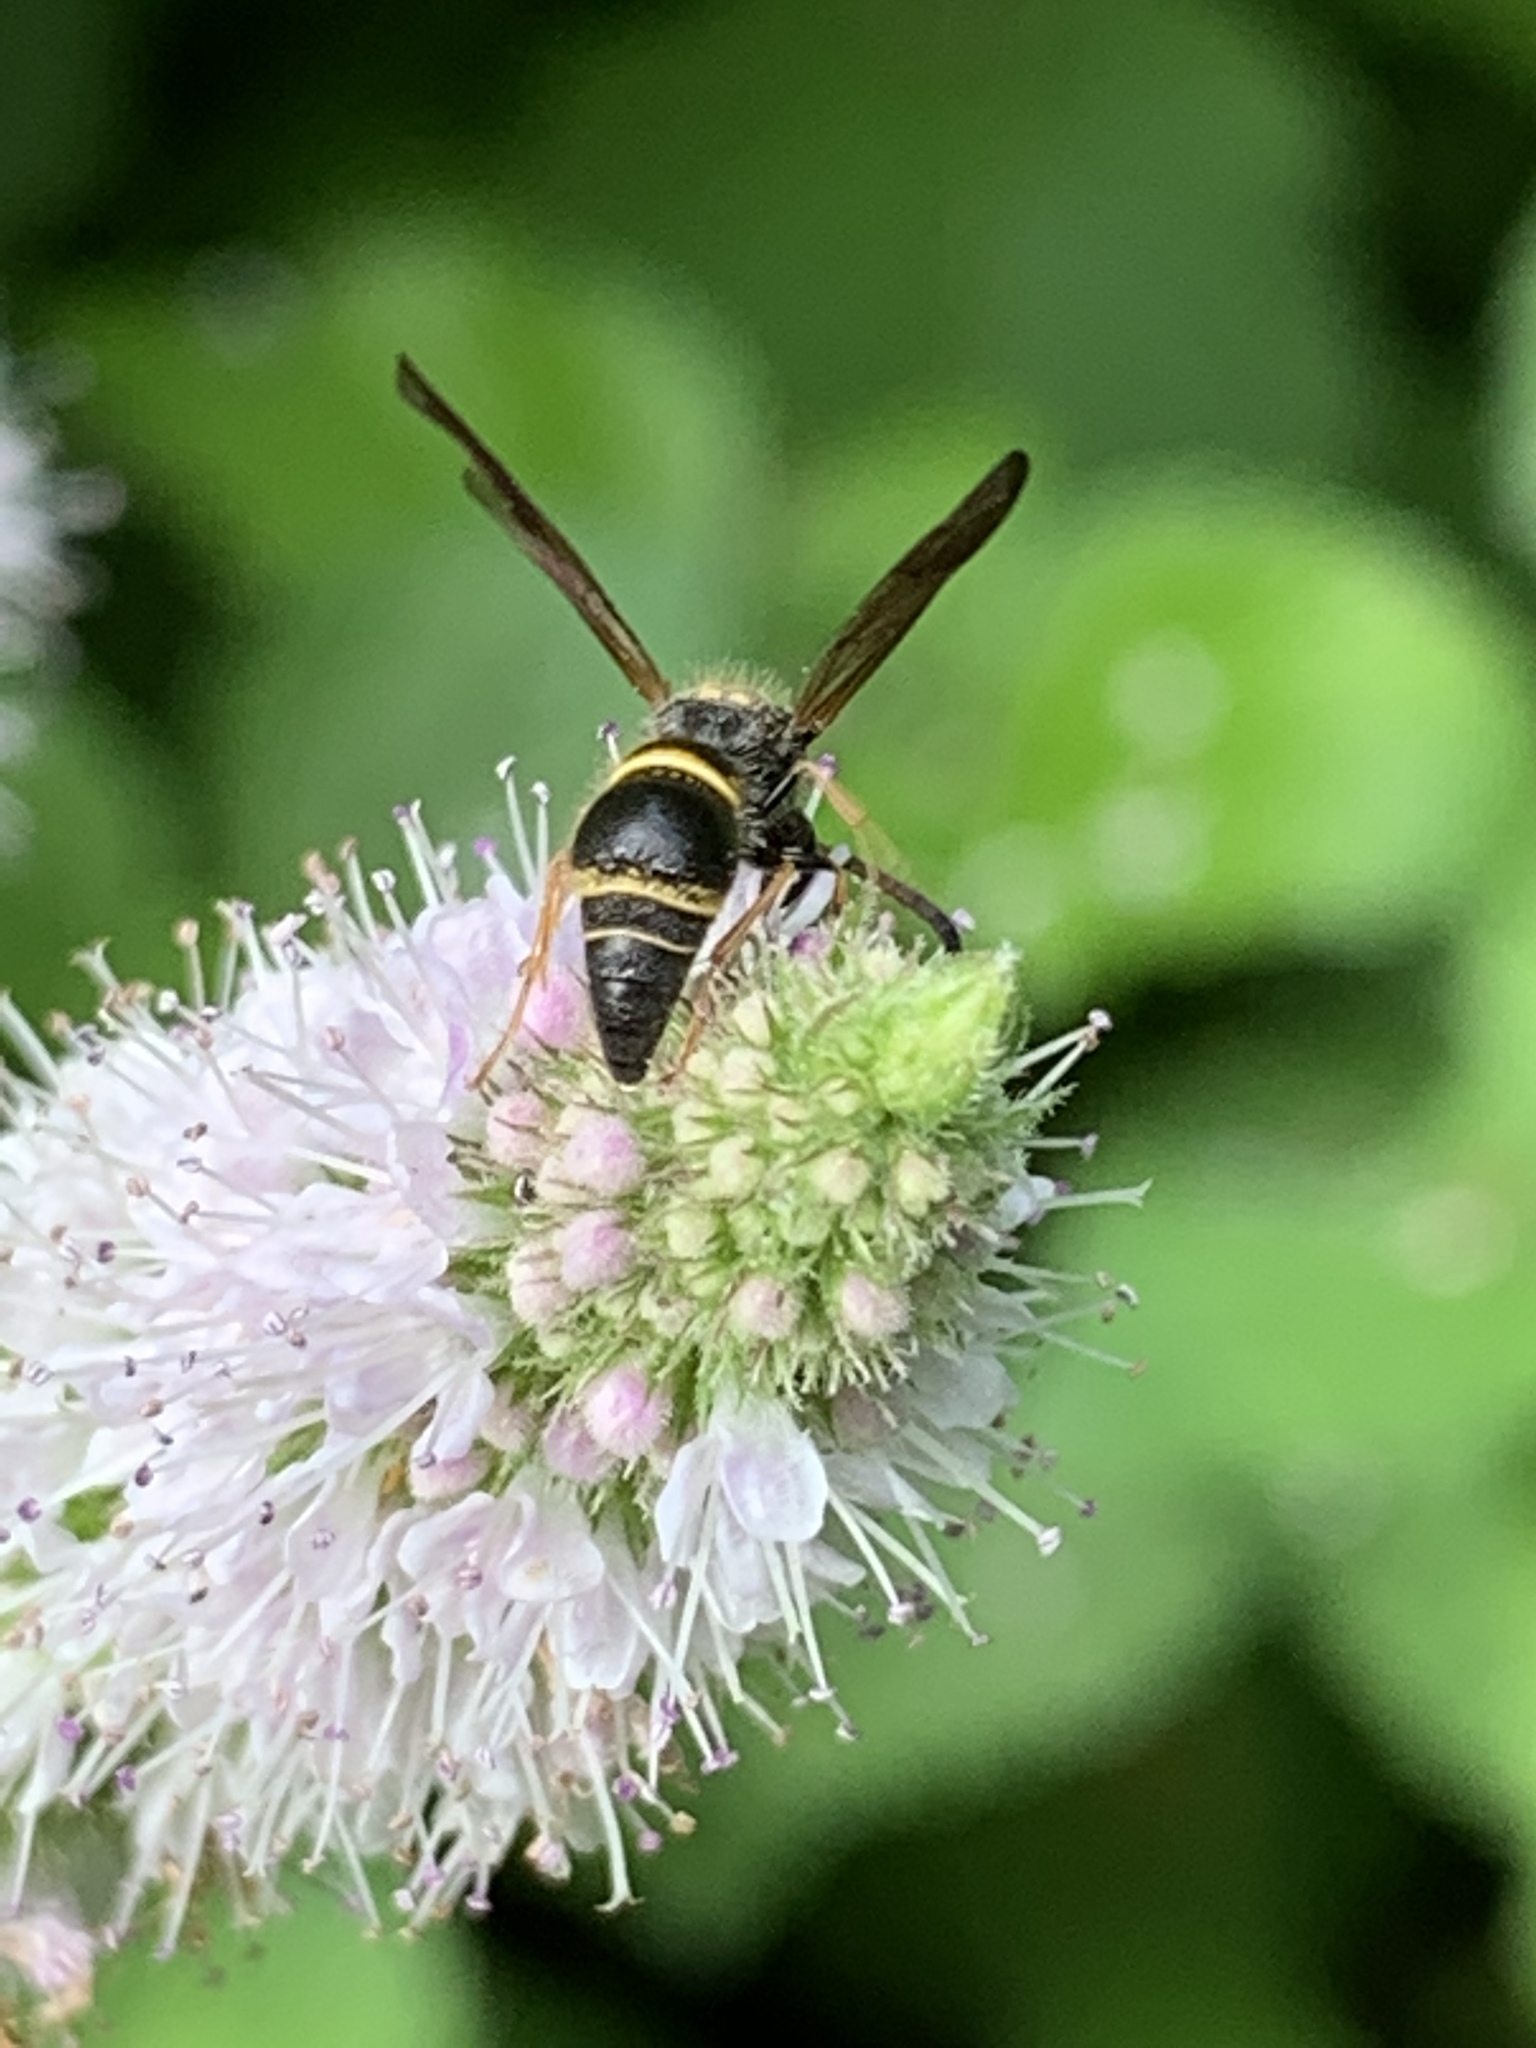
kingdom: Animalia
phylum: Arthropoda
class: Insecta
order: Hymenoptera
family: Vespidae
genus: Ancistrocerus
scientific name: Ancistrocerus campestris
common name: Smiling mason wasp
